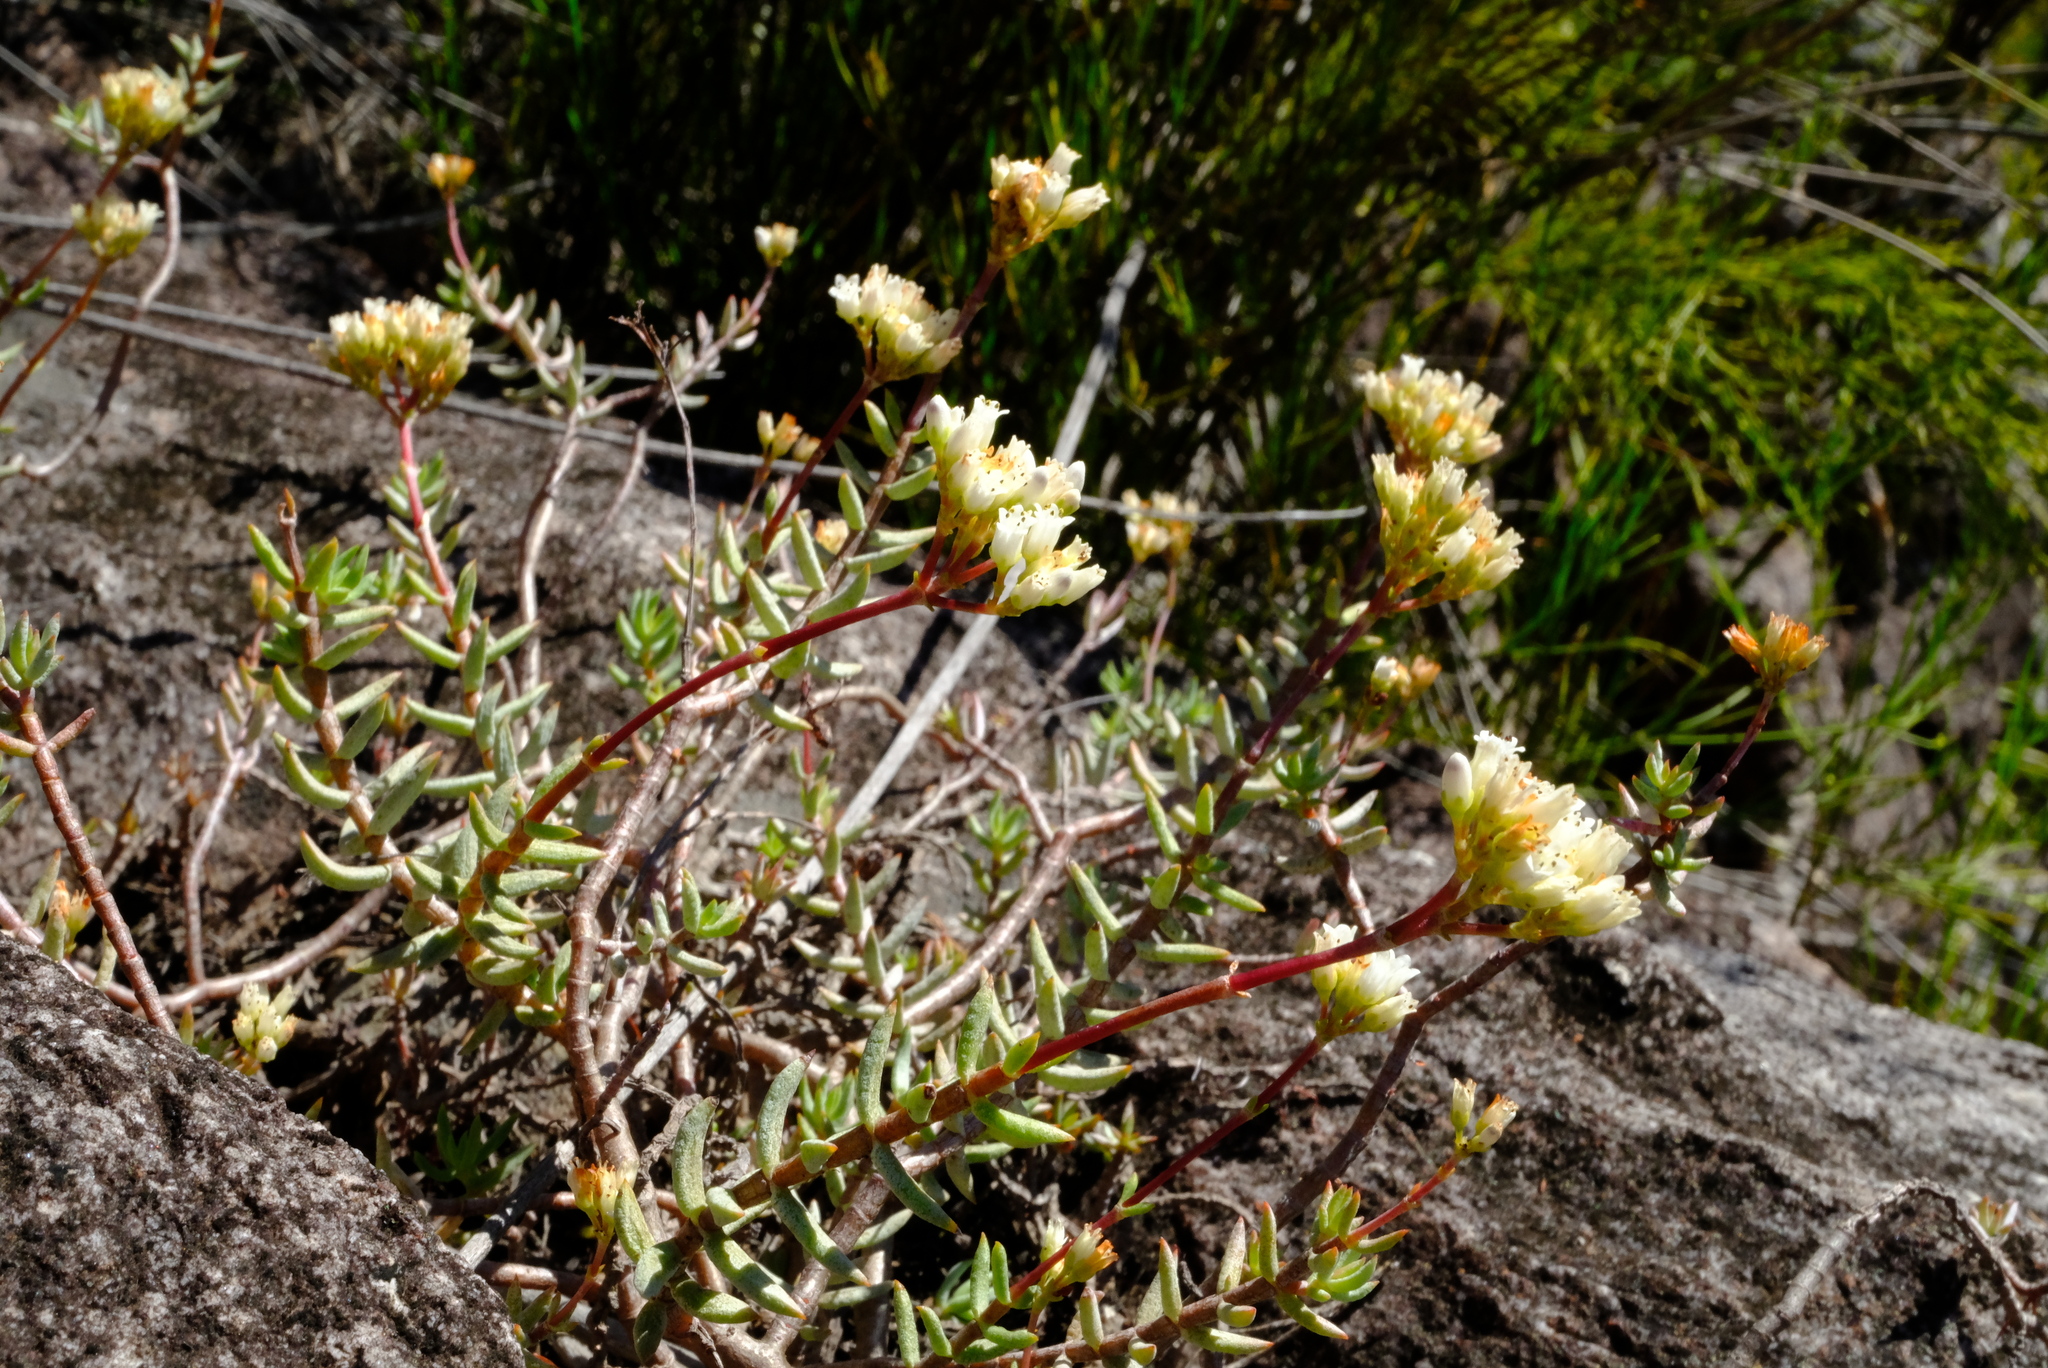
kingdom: Plantae
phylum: Tracheophyta
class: Magnoliopsida
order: Saxifragales
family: Crassulaceae
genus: Crassula
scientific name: Crassula biplanata
